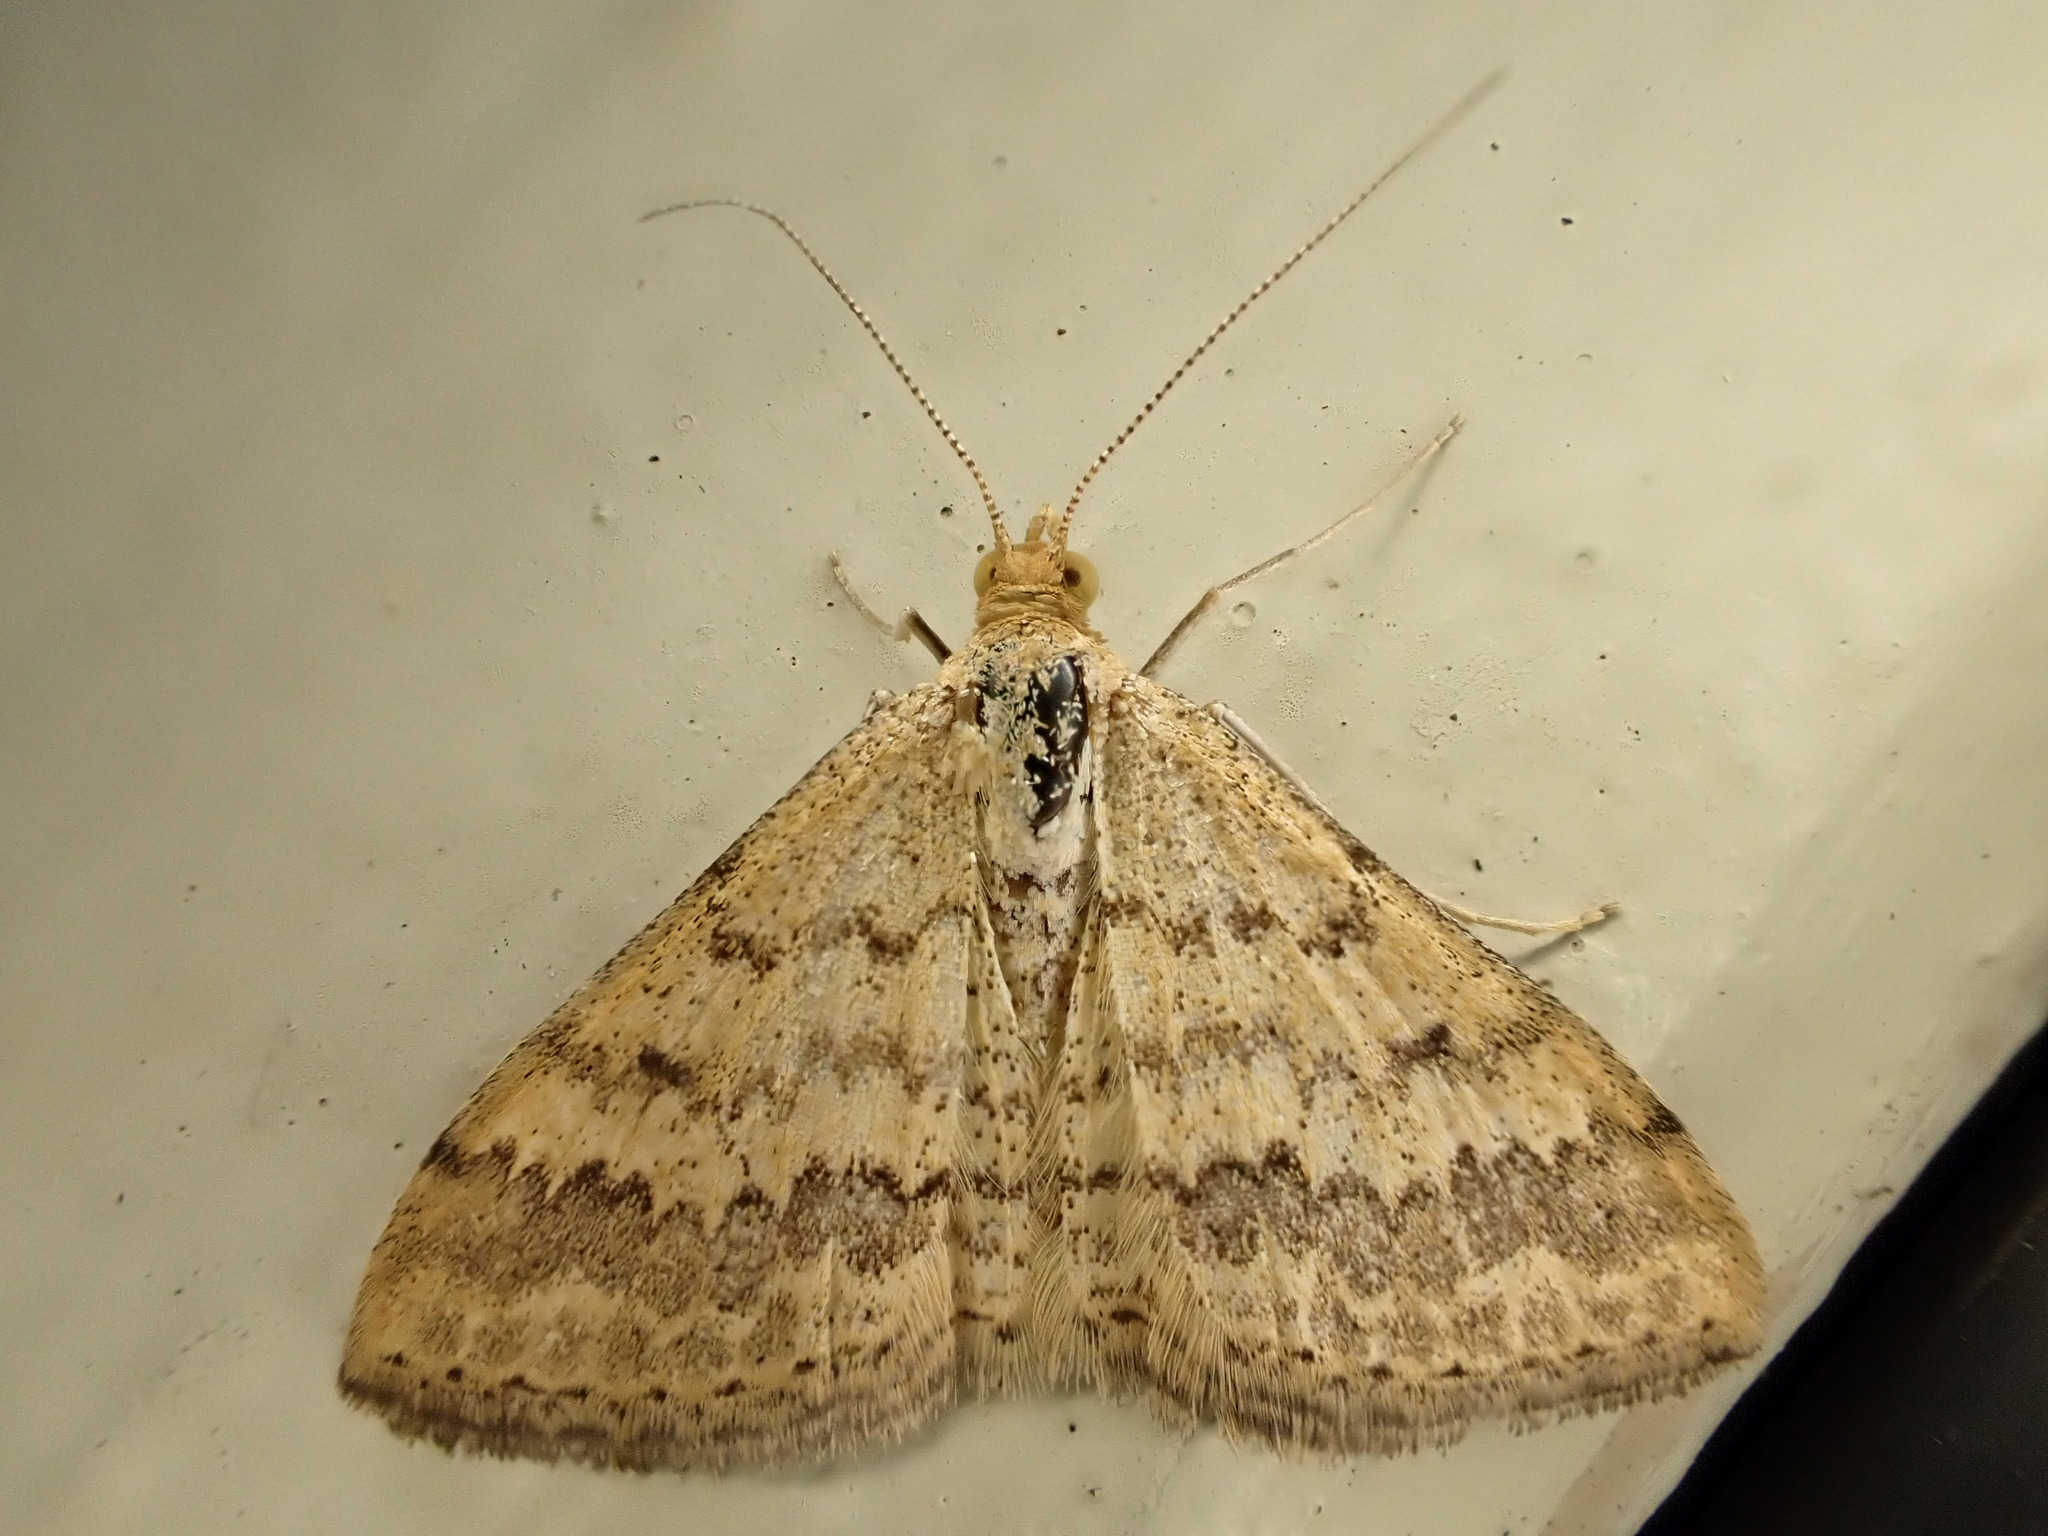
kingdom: Animalia
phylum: Arthropoda
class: Insecta
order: Lepidoptera
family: Geometridae
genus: Scopula
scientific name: Scopula rubraria
